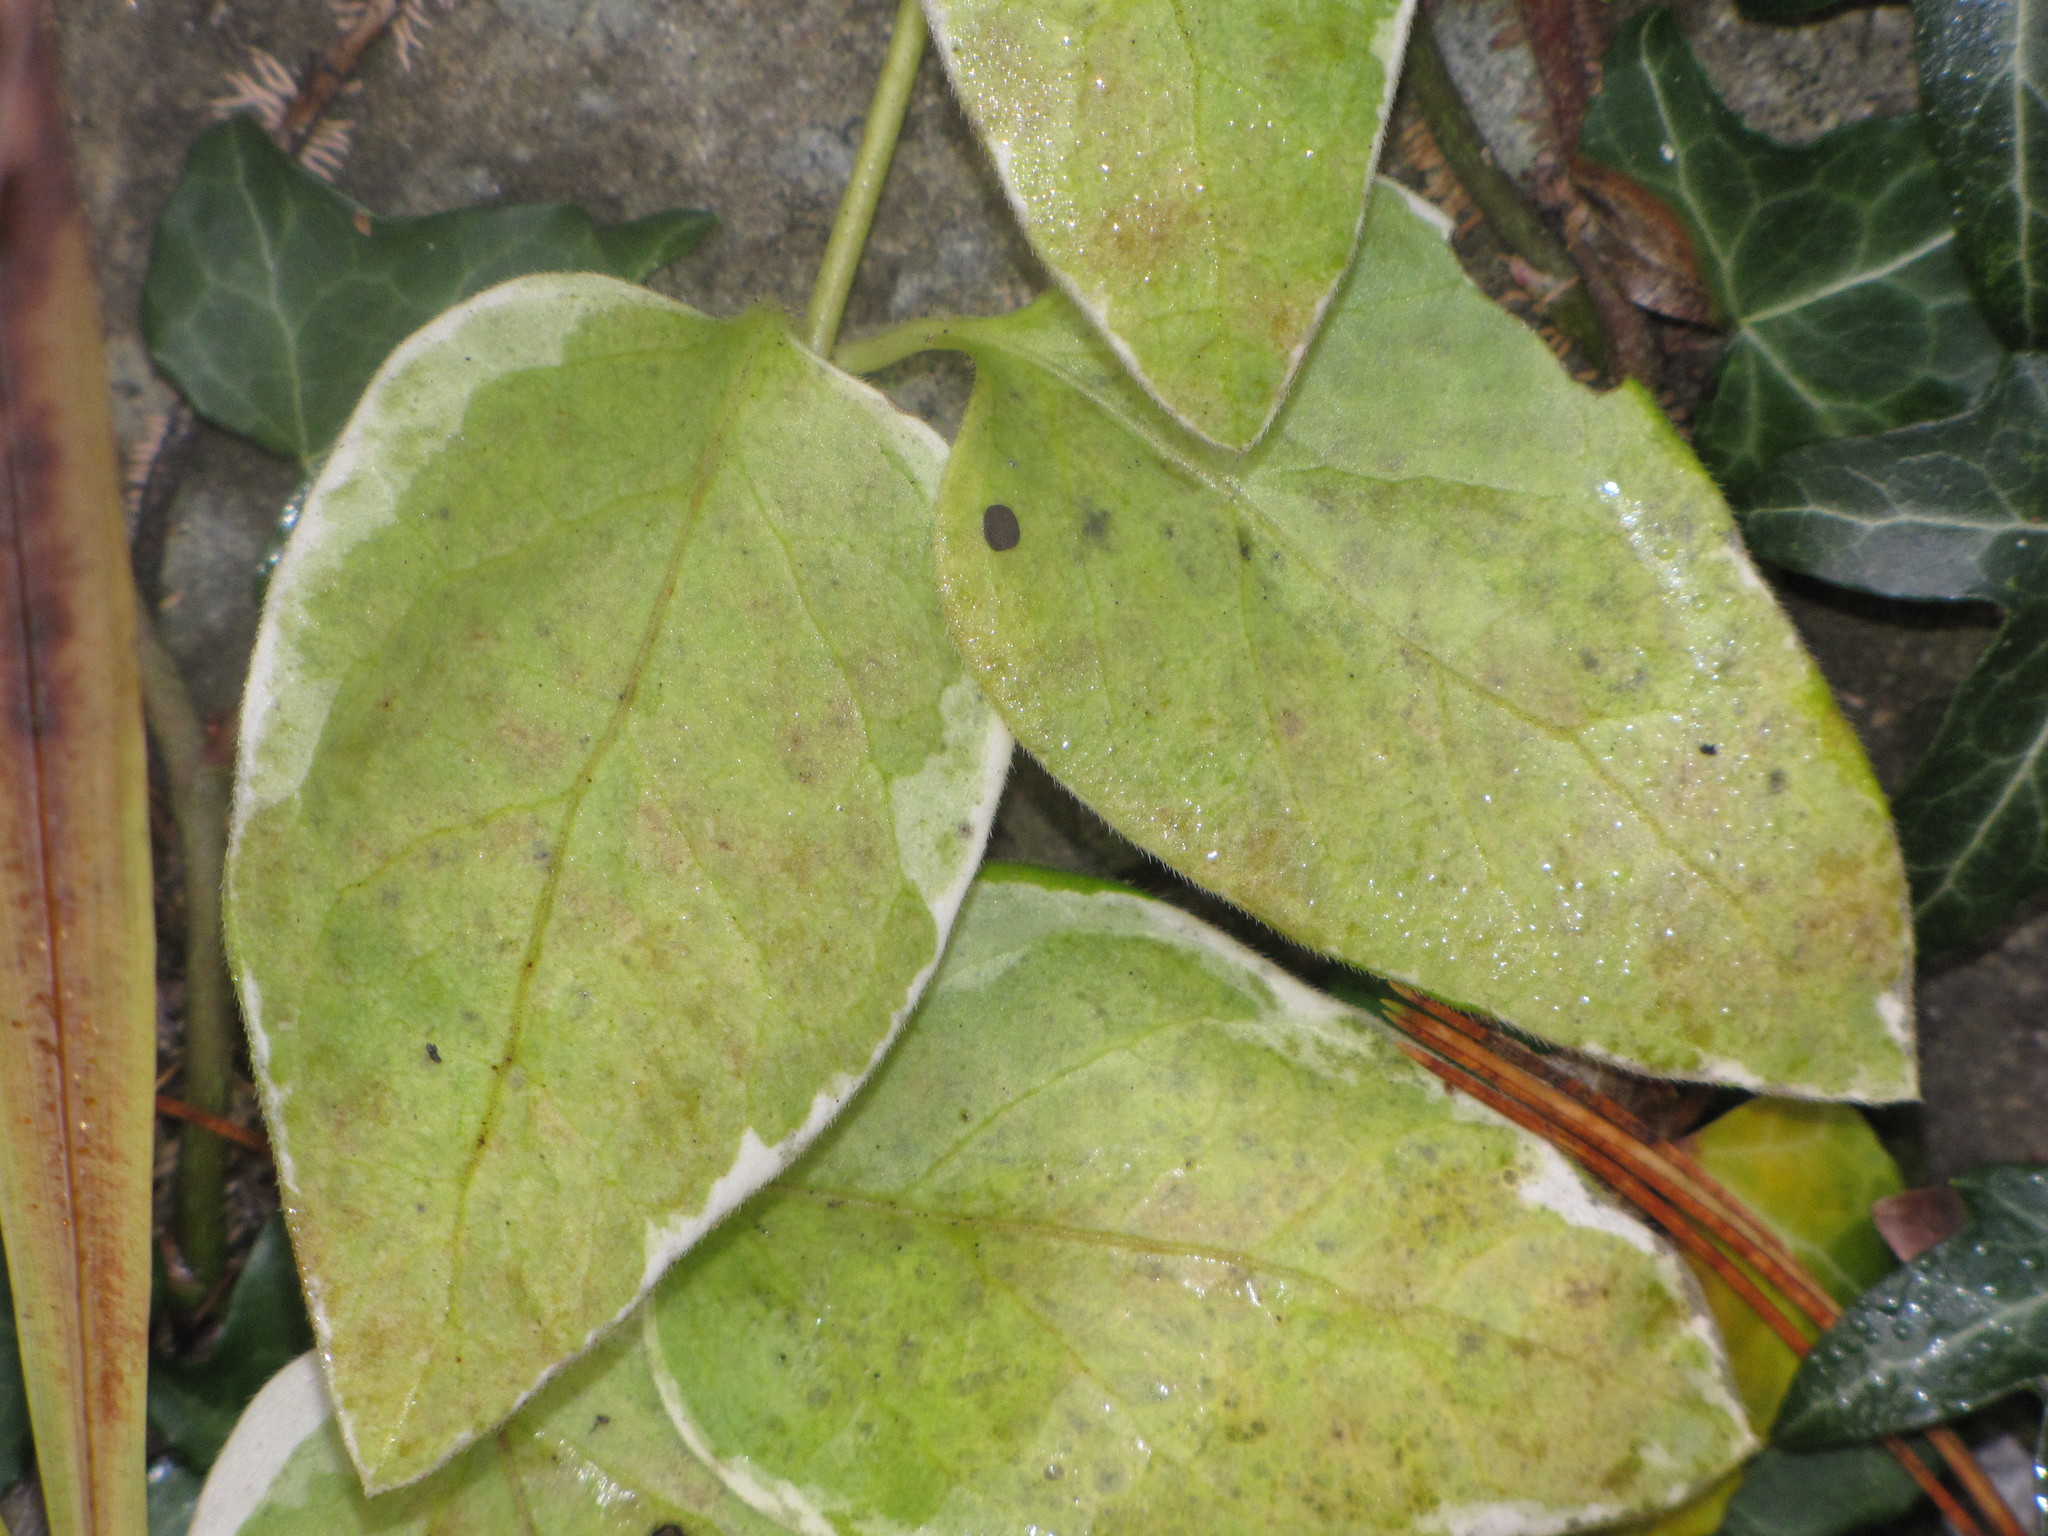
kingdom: Plantae
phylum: Tracheophyta
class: Magnoliopsida
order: Gentianales
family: Apocynaceae
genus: Vinca
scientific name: Vinca major
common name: Greater periwinkle
